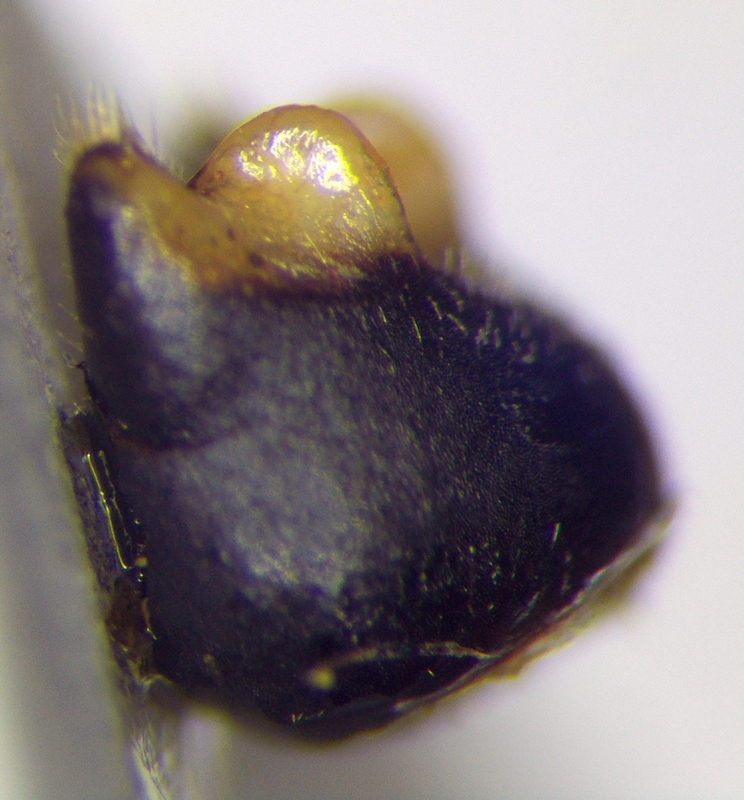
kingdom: Animalia
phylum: Arthropoda
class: Insecta
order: Hemiptera
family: Pentatomidae
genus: Dolycoris
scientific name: Dolycoris baccarum
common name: Sloe bug
